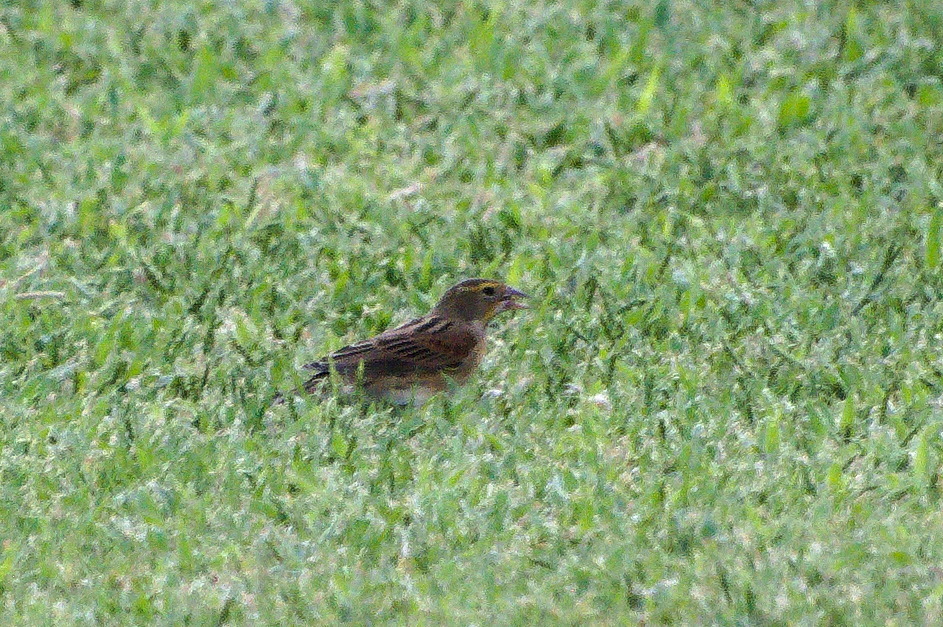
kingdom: Animalia
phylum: Chordata
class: Aves
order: Passeriformes
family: Cardinalidae
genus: Spiza
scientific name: Spiza americana
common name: Dickcissel
